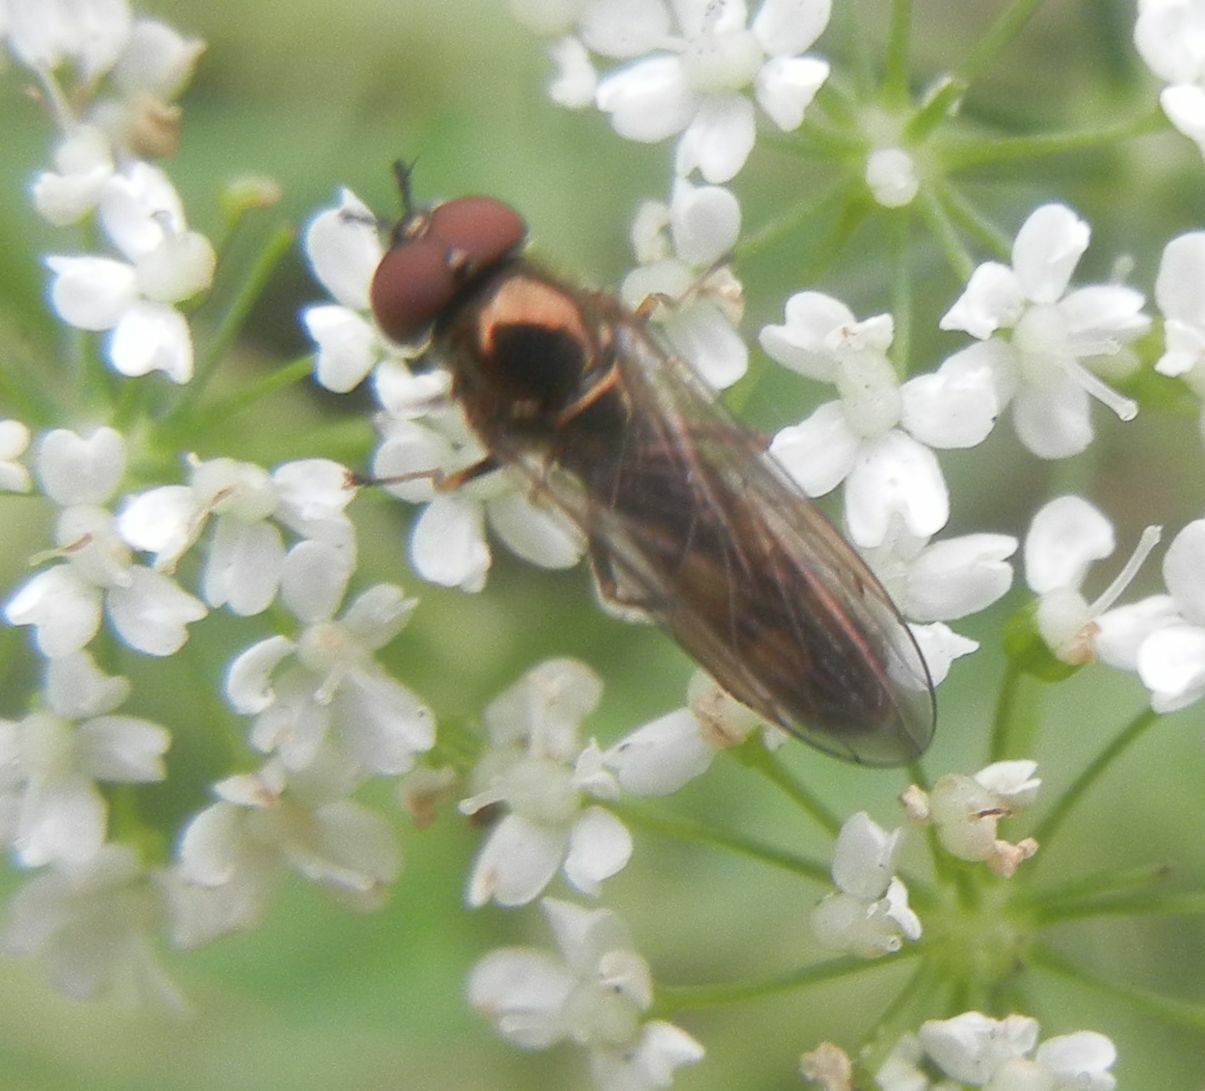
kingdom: Animalia
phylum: Arthropoda
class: Insecta
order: Diptera
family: Syrphidae
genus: Melanostoma
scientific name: Melanostoma
